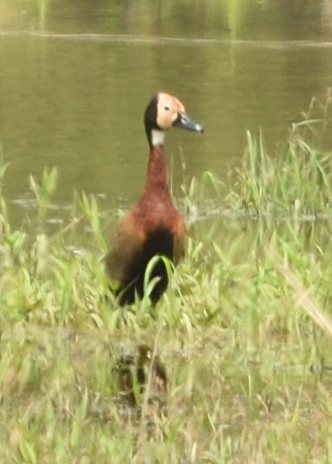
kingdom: Animalia
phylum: Chordata
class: Aves
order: Anseriformes
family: Anatidae
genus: Dendrocygna
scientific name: Dendrocygna viduata
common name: White-faced whistling duck
